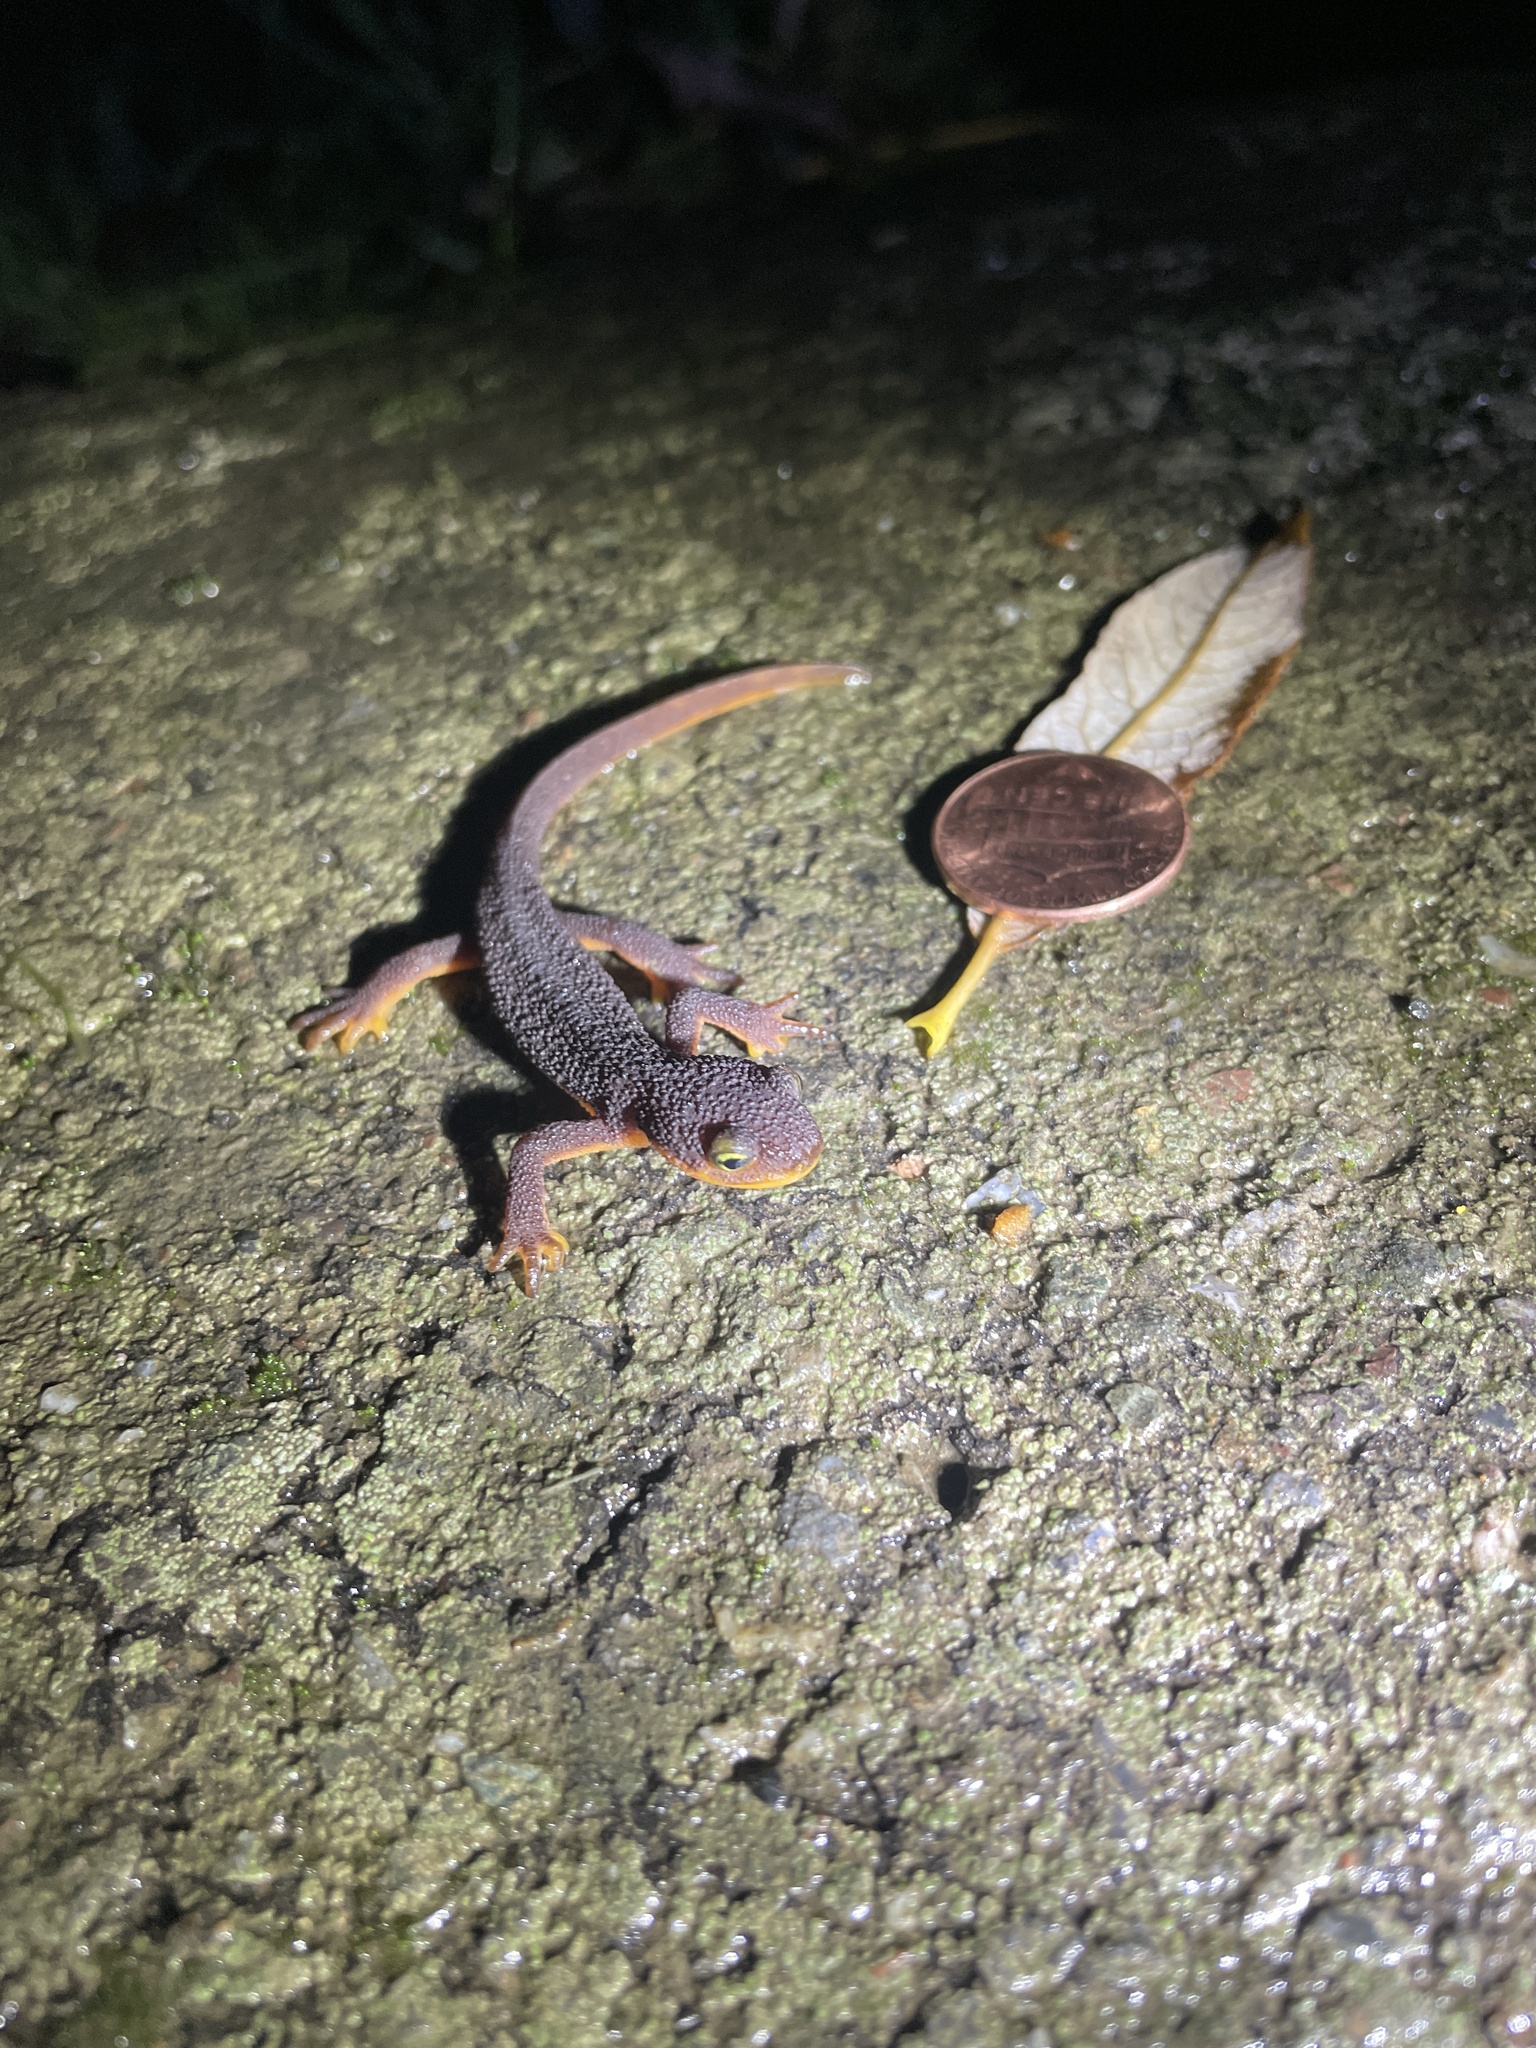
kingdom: Animalia
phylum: Chordata
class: Amphibia
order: Caudata
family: Salamandridae
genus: Taricha
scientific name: Taricha torosa
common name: California newt
